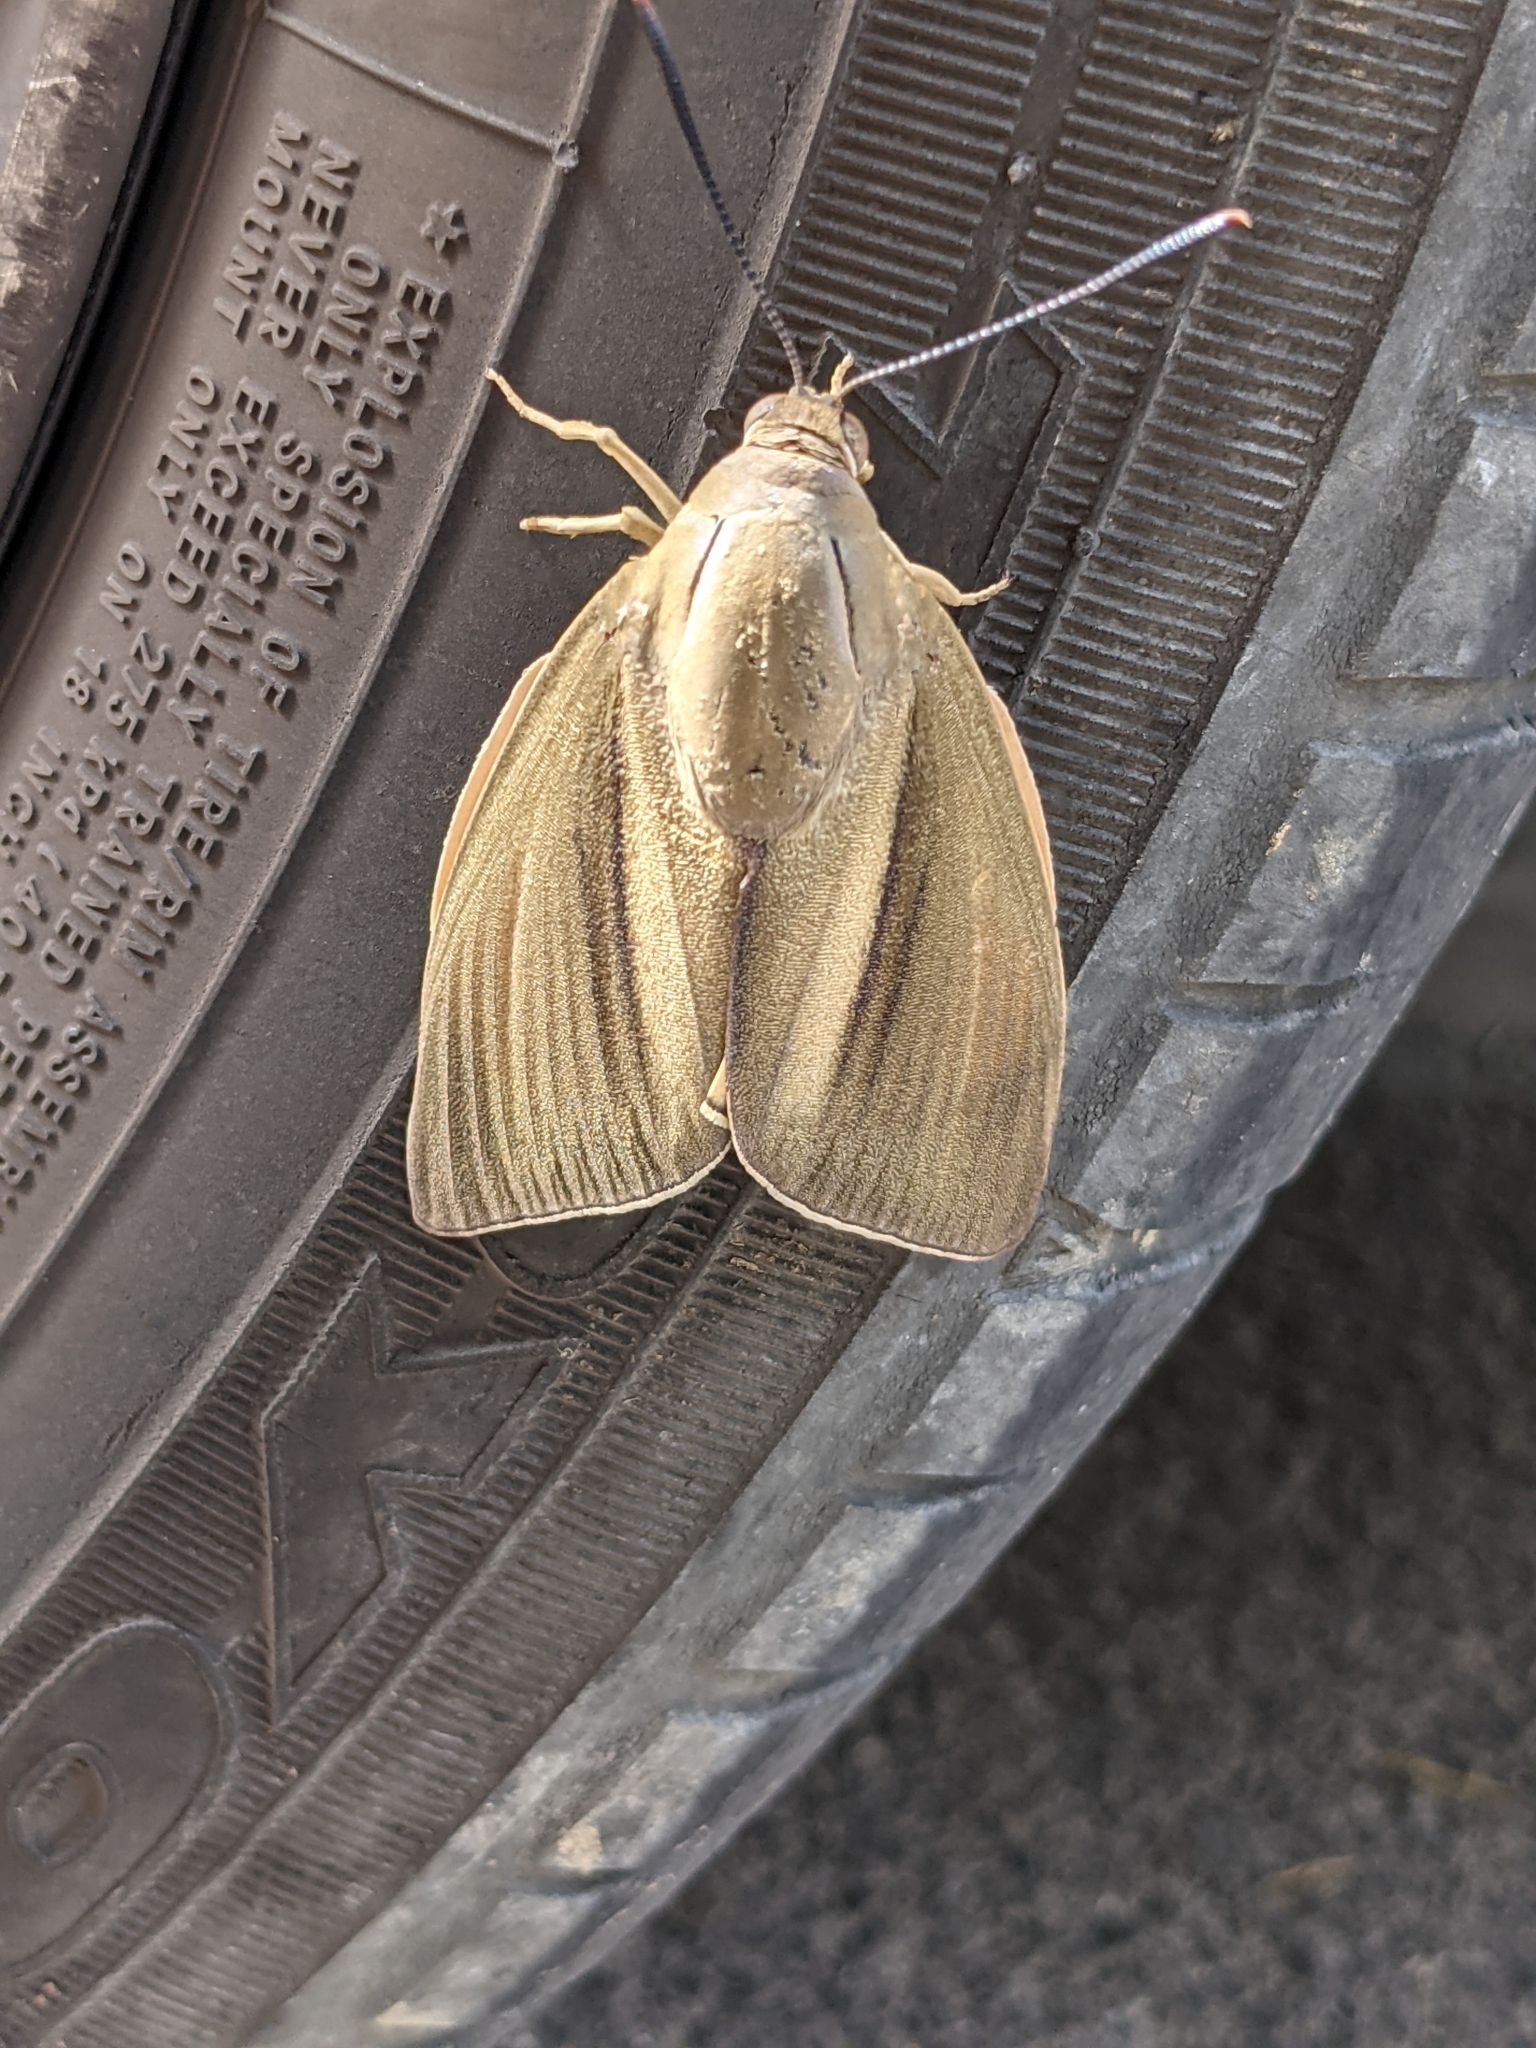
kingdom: Animalia
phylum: Arthropoda
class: Insecta
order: Lepidoptera
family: Castniidae
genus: Paysandisia
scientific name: Paysandisia archon
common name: Palm moth
